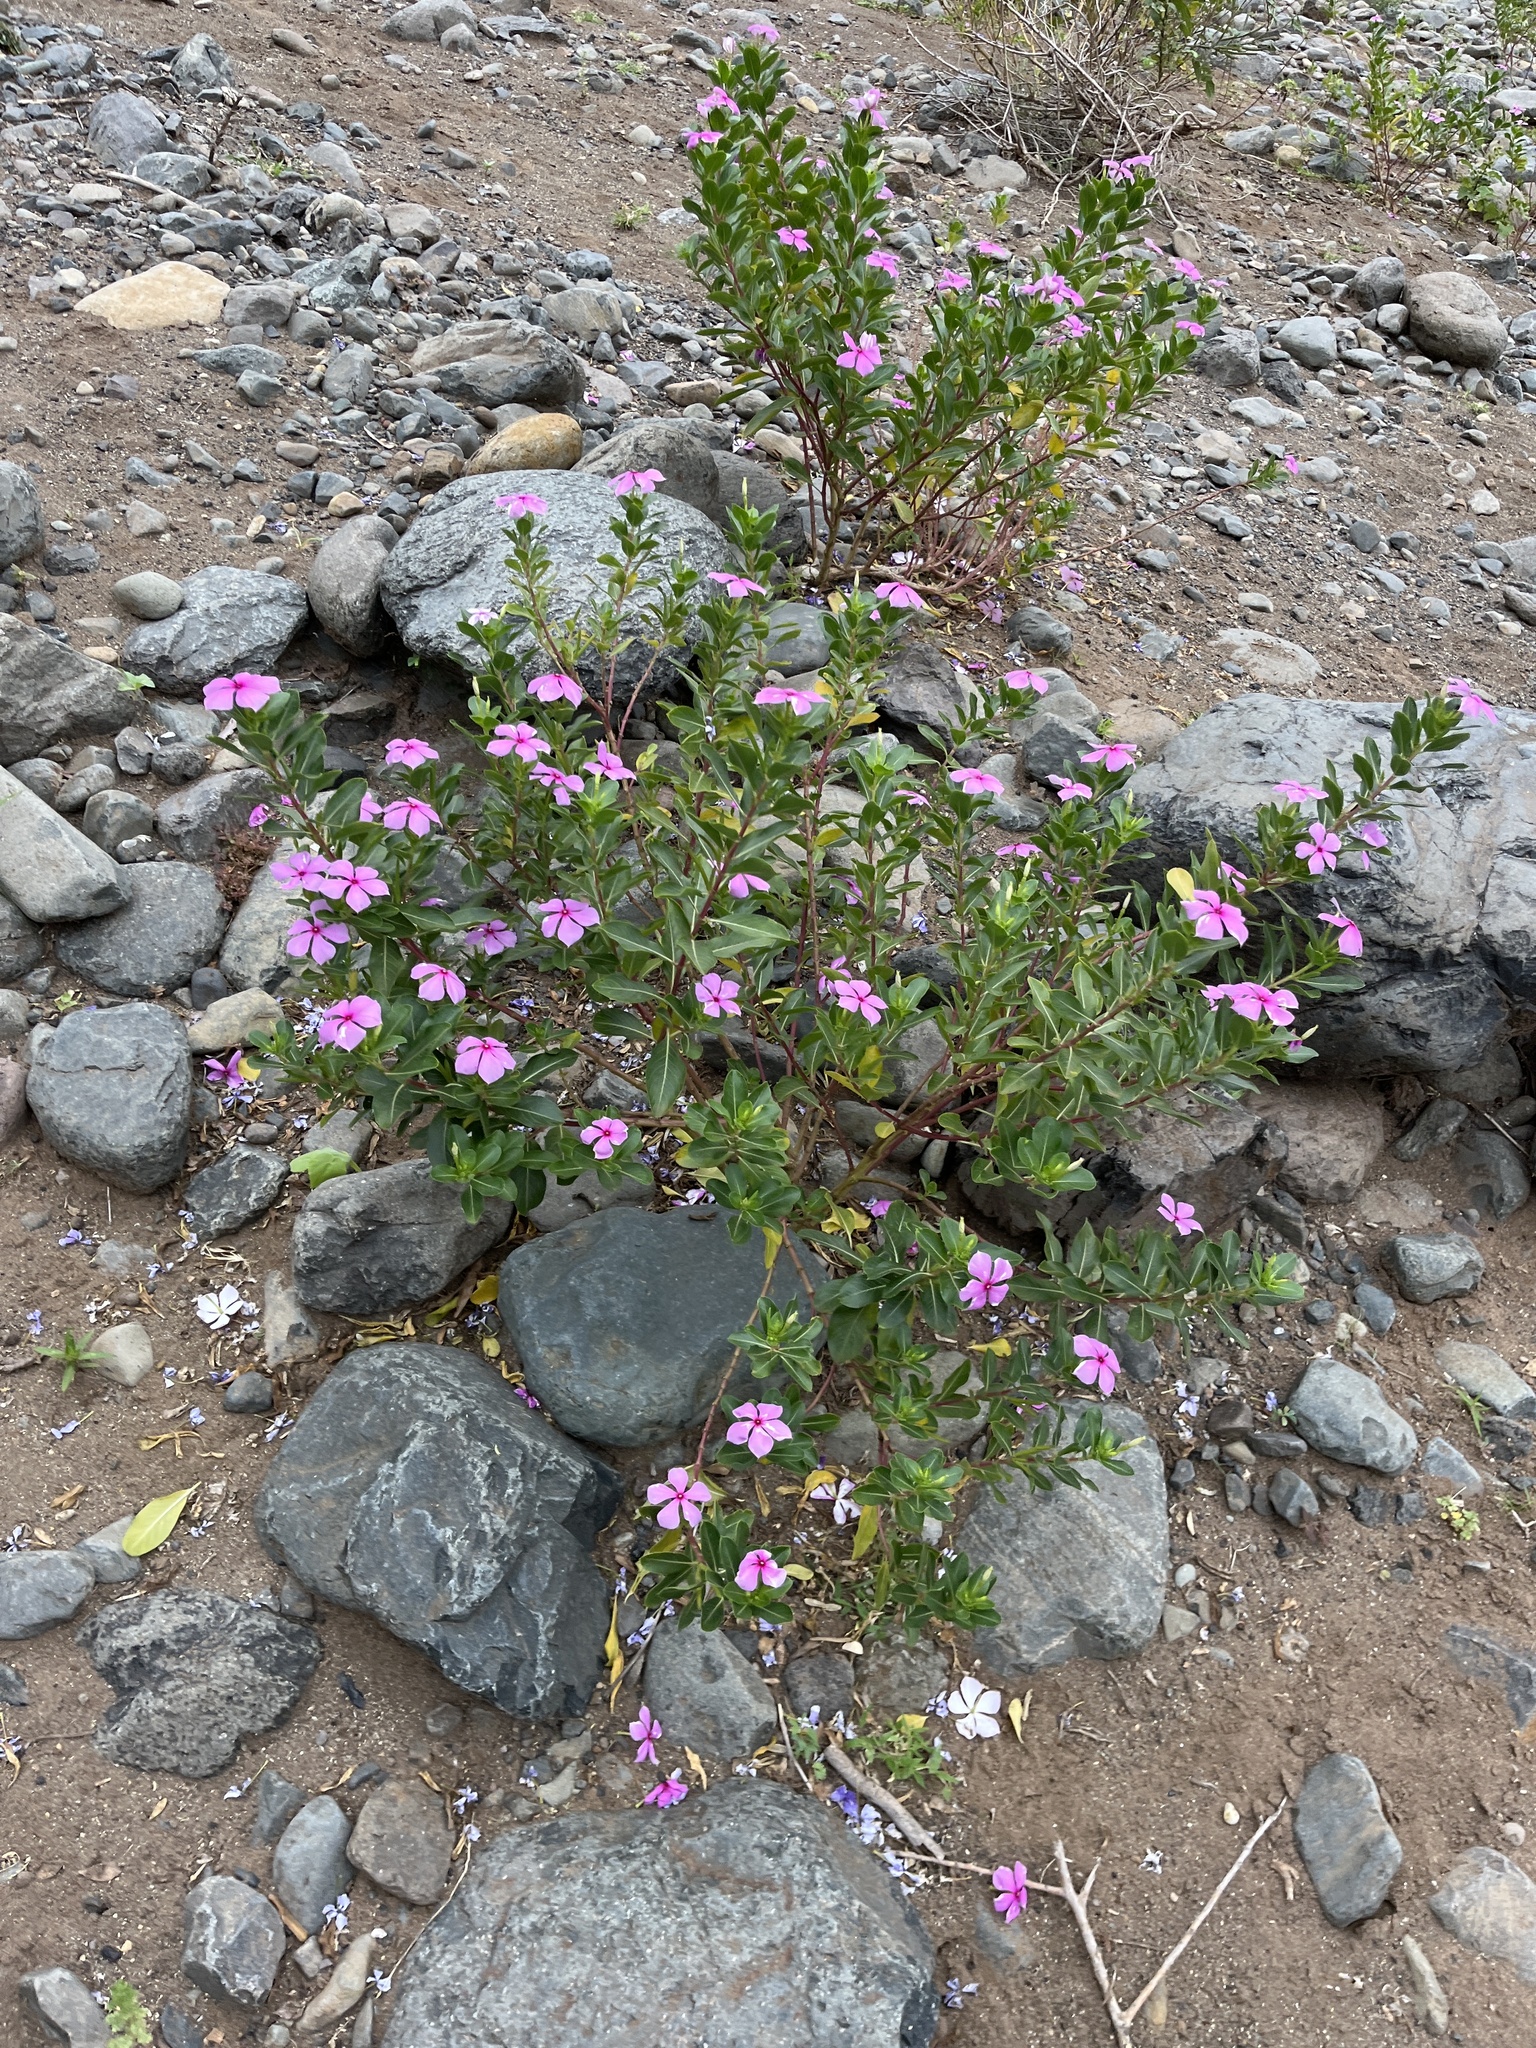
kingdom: Plantae
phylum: Tracheophyta
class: Magnoliopsida
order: Gentianales
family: Apocynaceae
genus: Catharanthus
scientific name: Catharanthus roseus
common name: Madagascar periwinkle
